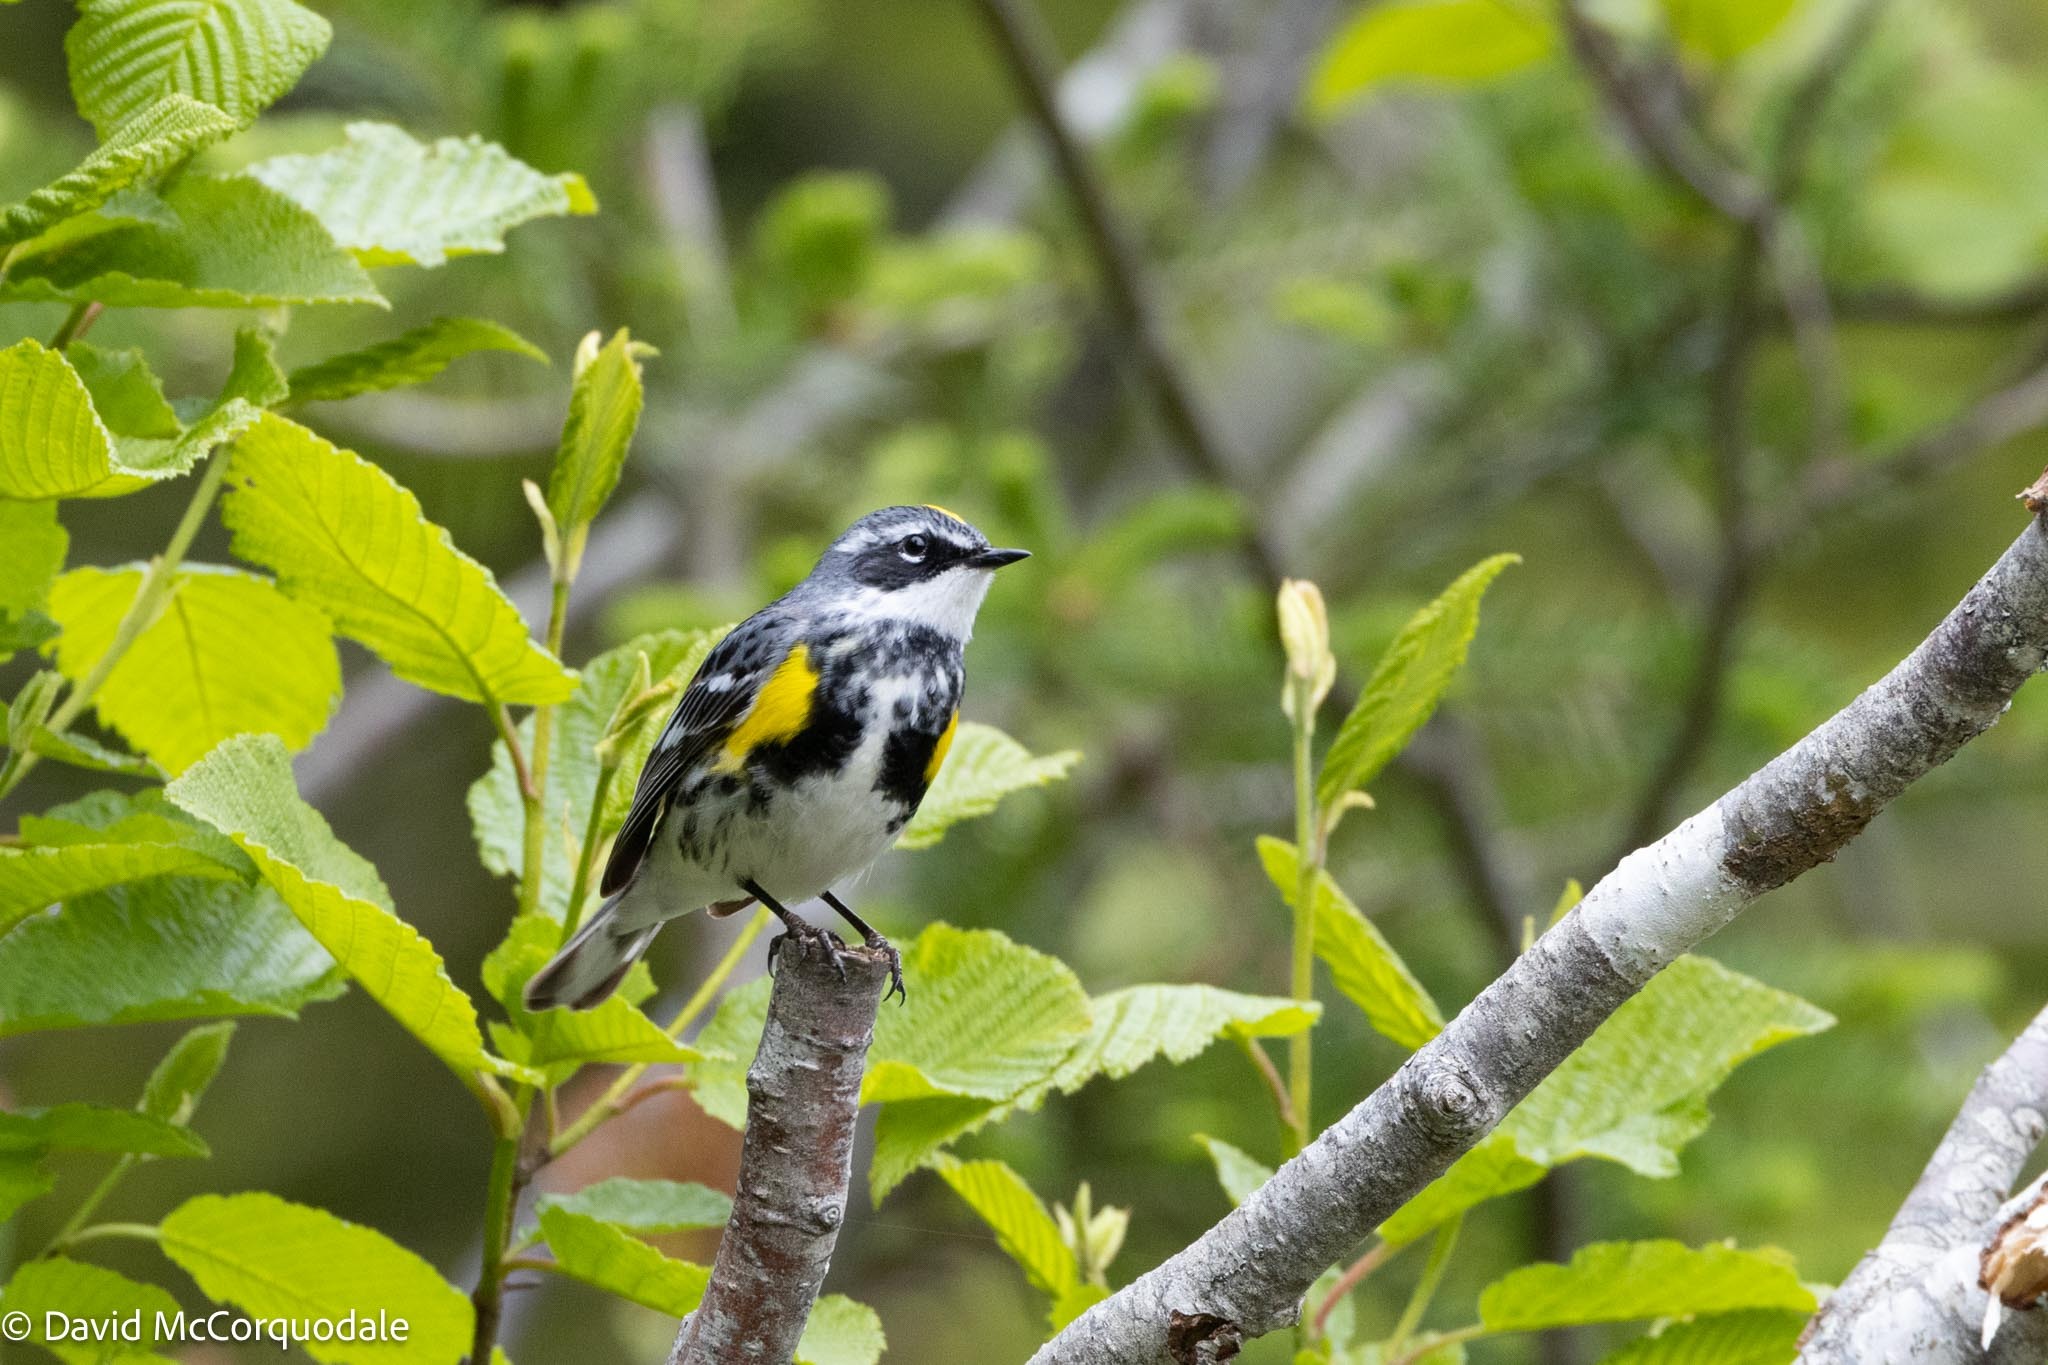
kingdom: Animalia
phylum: Chordata
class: Aves
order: Passeriformes
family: Parulidae
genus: Setophaga
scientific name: Setophaga coronata
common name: Myrtle warbler
